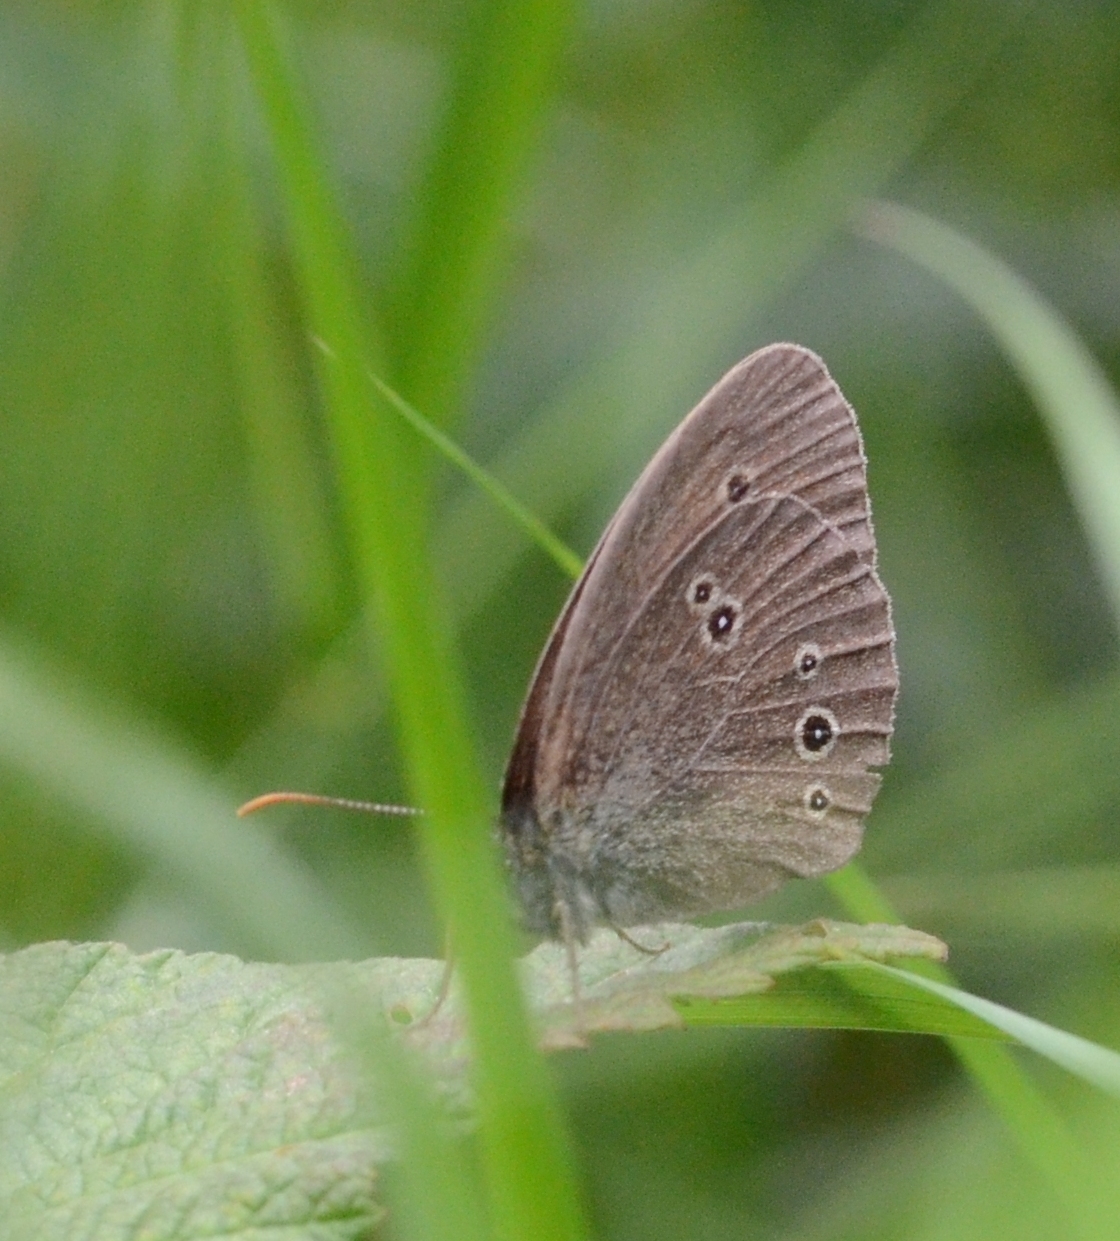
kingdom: Animalia
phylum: Arthropoda
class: Insecta
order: Lepidoptera
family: Nymphalidae
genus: Aphantopus
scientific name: Aphantopus hyperantus
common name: Ringlet
